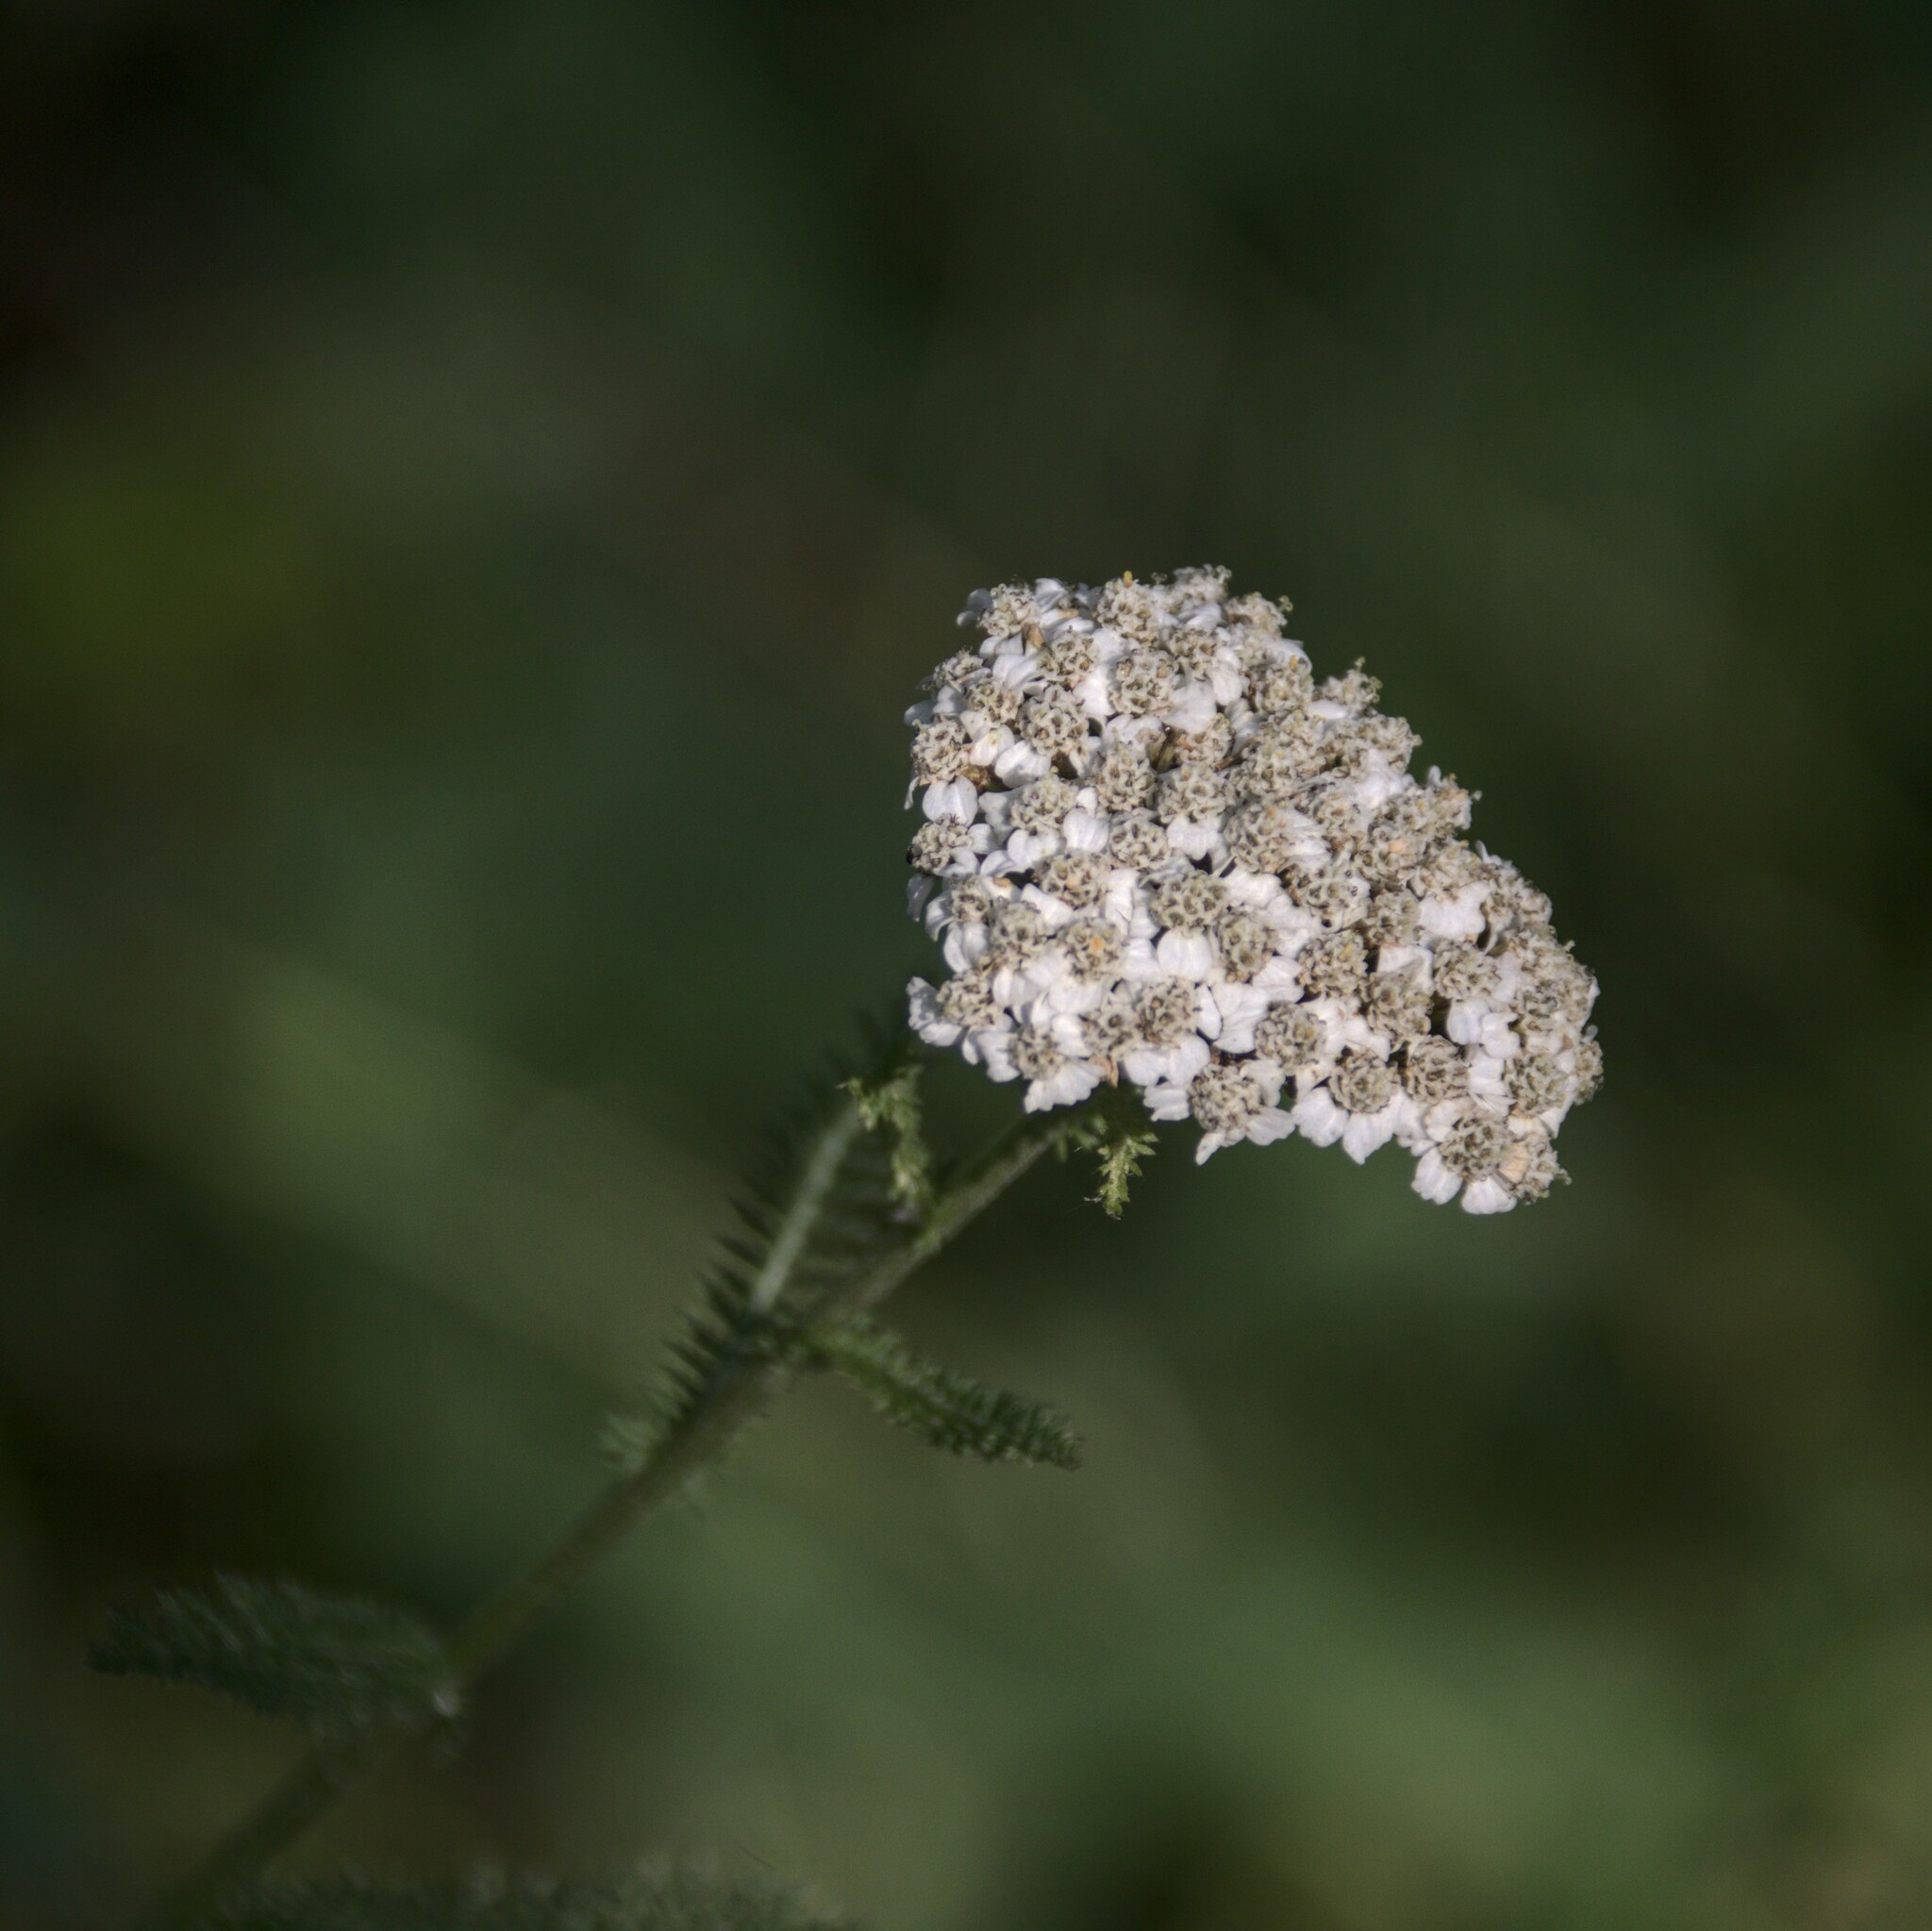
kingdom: Plantae
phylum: Tracheophyta
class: Magnoliopsida
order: Asterales
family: Asteraceae
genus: Achillea
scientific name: Achillea millefolium
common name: Yarrow
